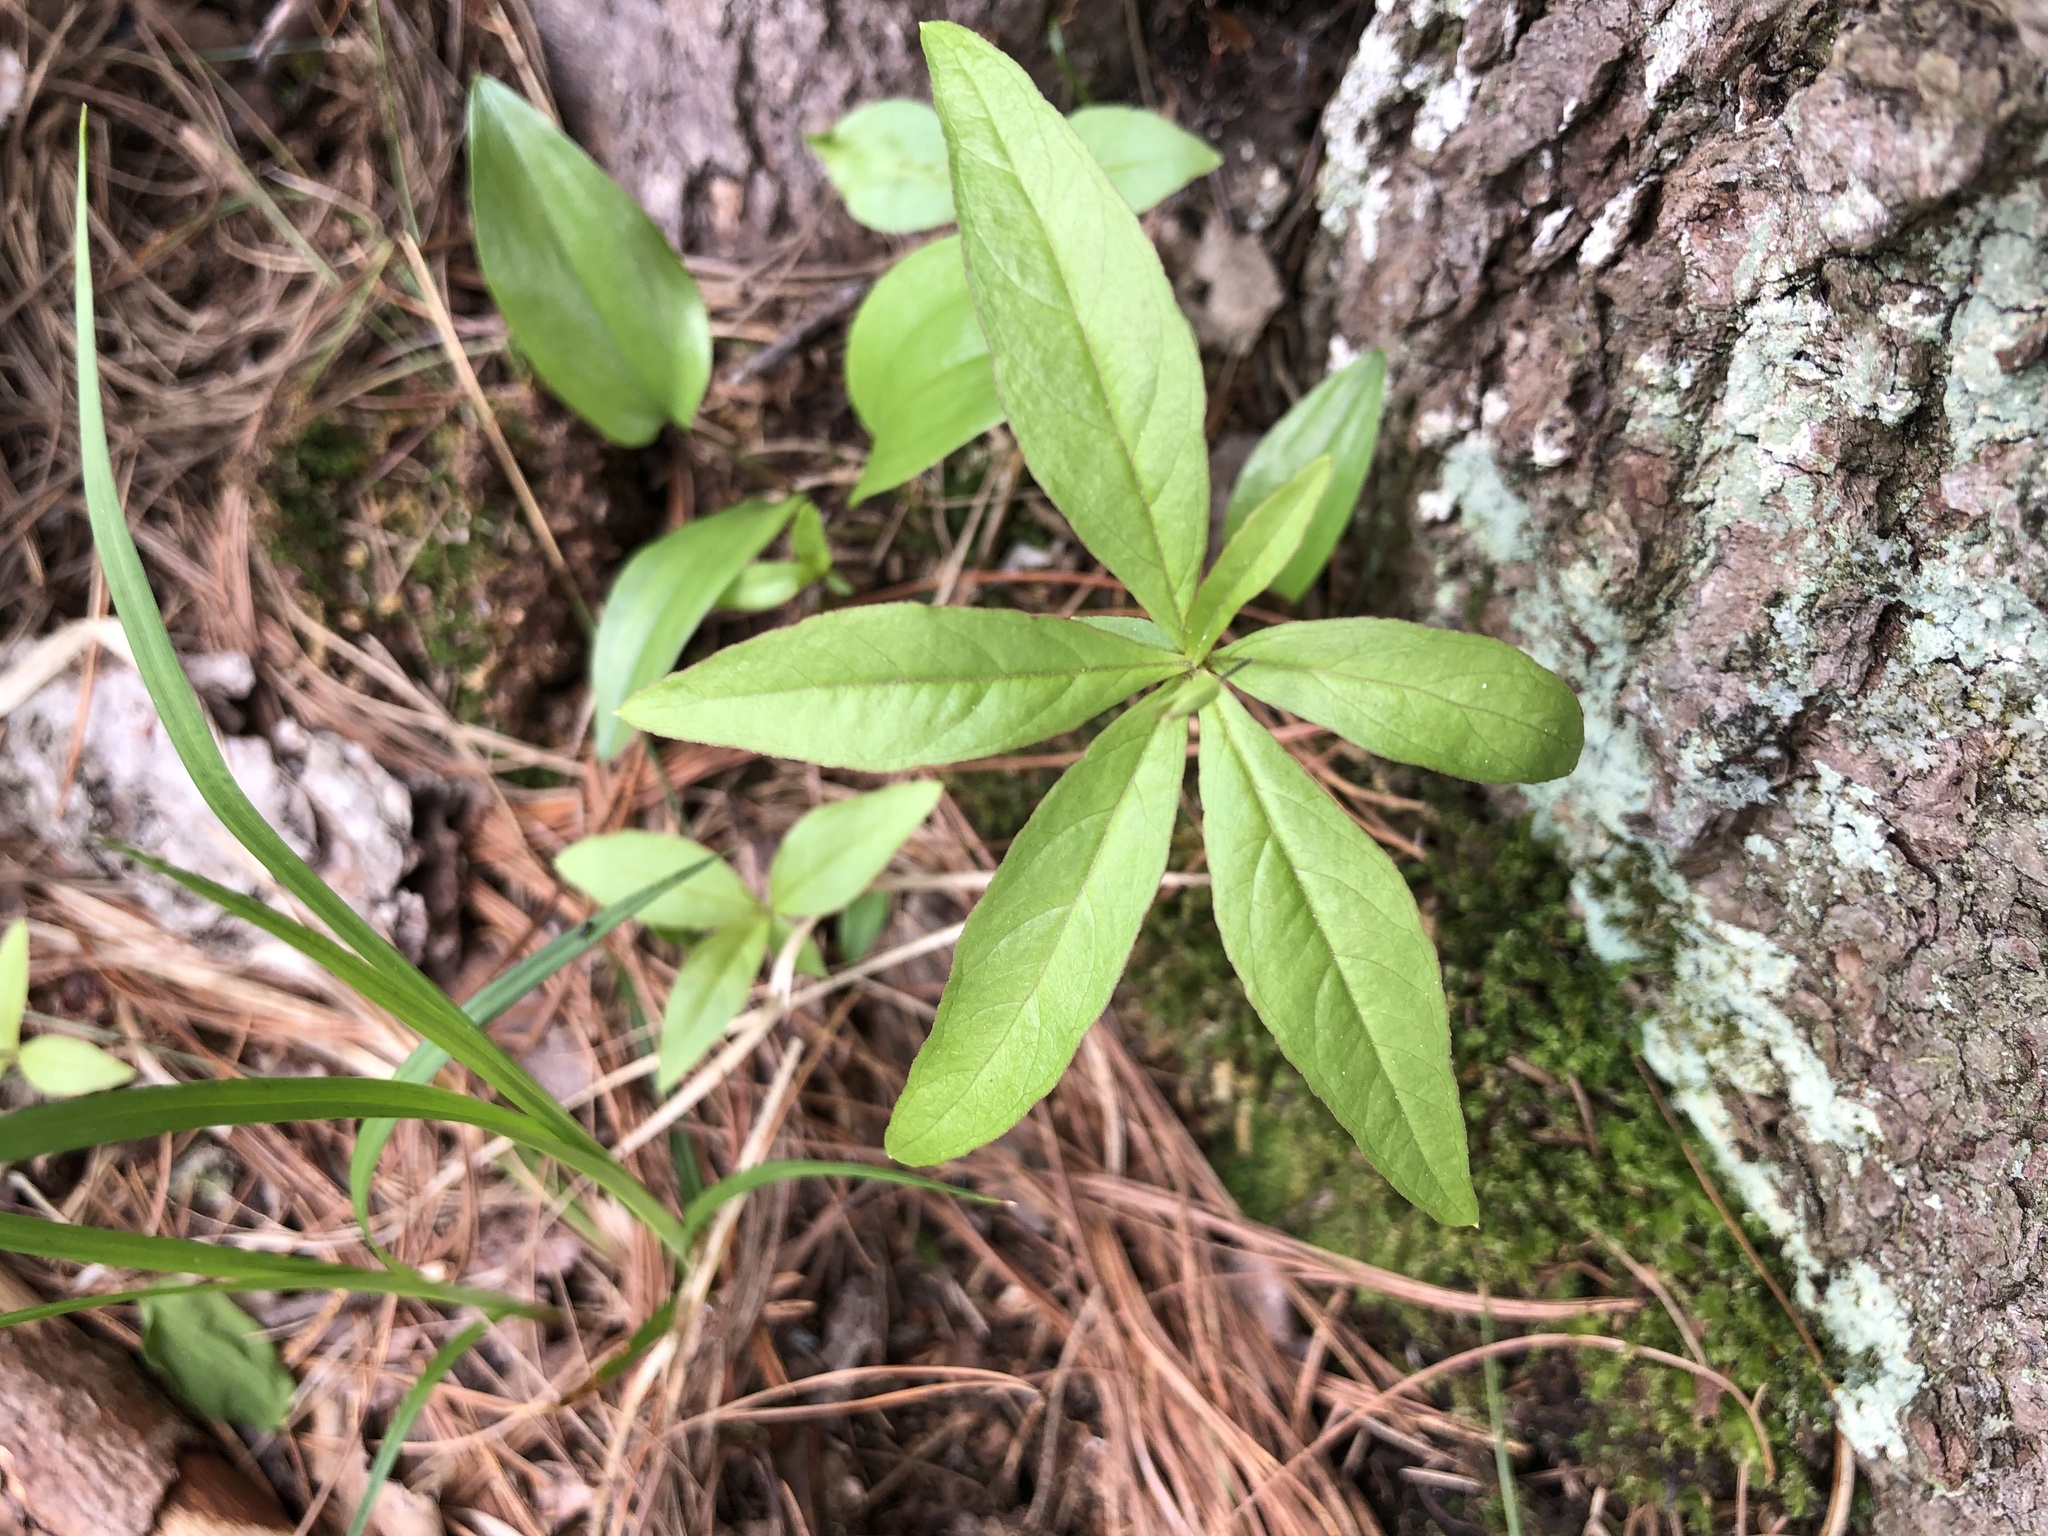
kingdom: Plantae
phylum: Tracheophyta
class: Magnoliopsida
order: Ericales
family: Primulaceae
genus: Lysimachia
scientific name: Lysimachia borealis
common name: American starflower
